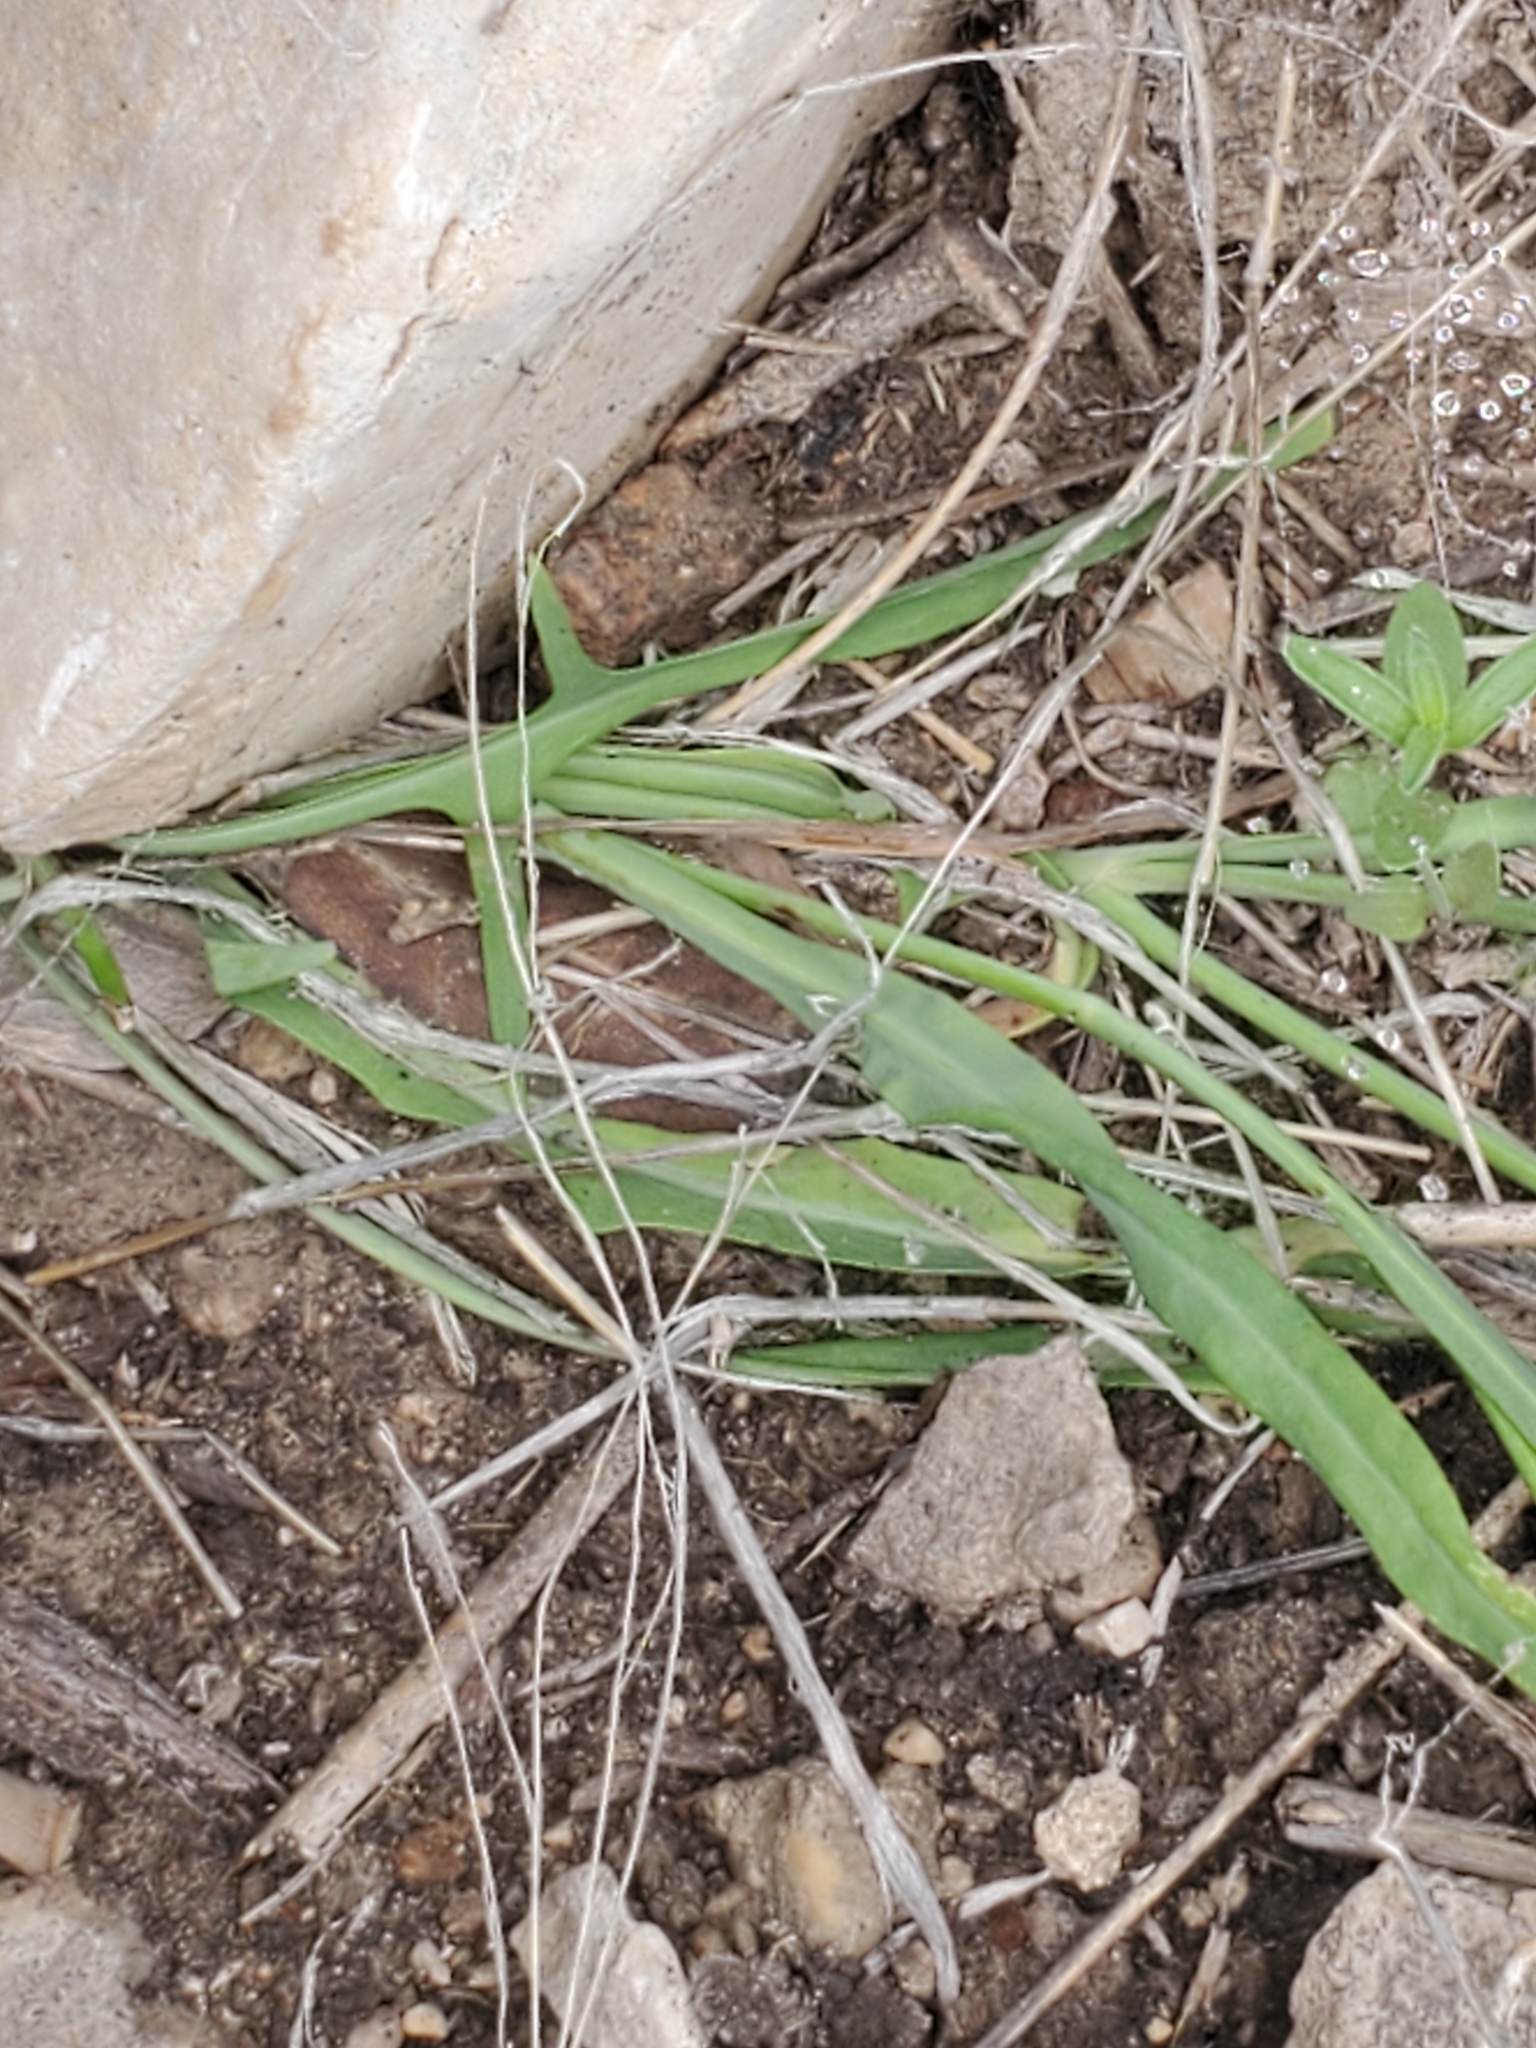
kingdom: Plantae
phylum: Tracheophyta
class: Magnoliopsida
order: Asterales
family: Asteraceae
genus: Pinaropappus
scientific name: Pinaropappus roseus
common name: Rock-lettuce
